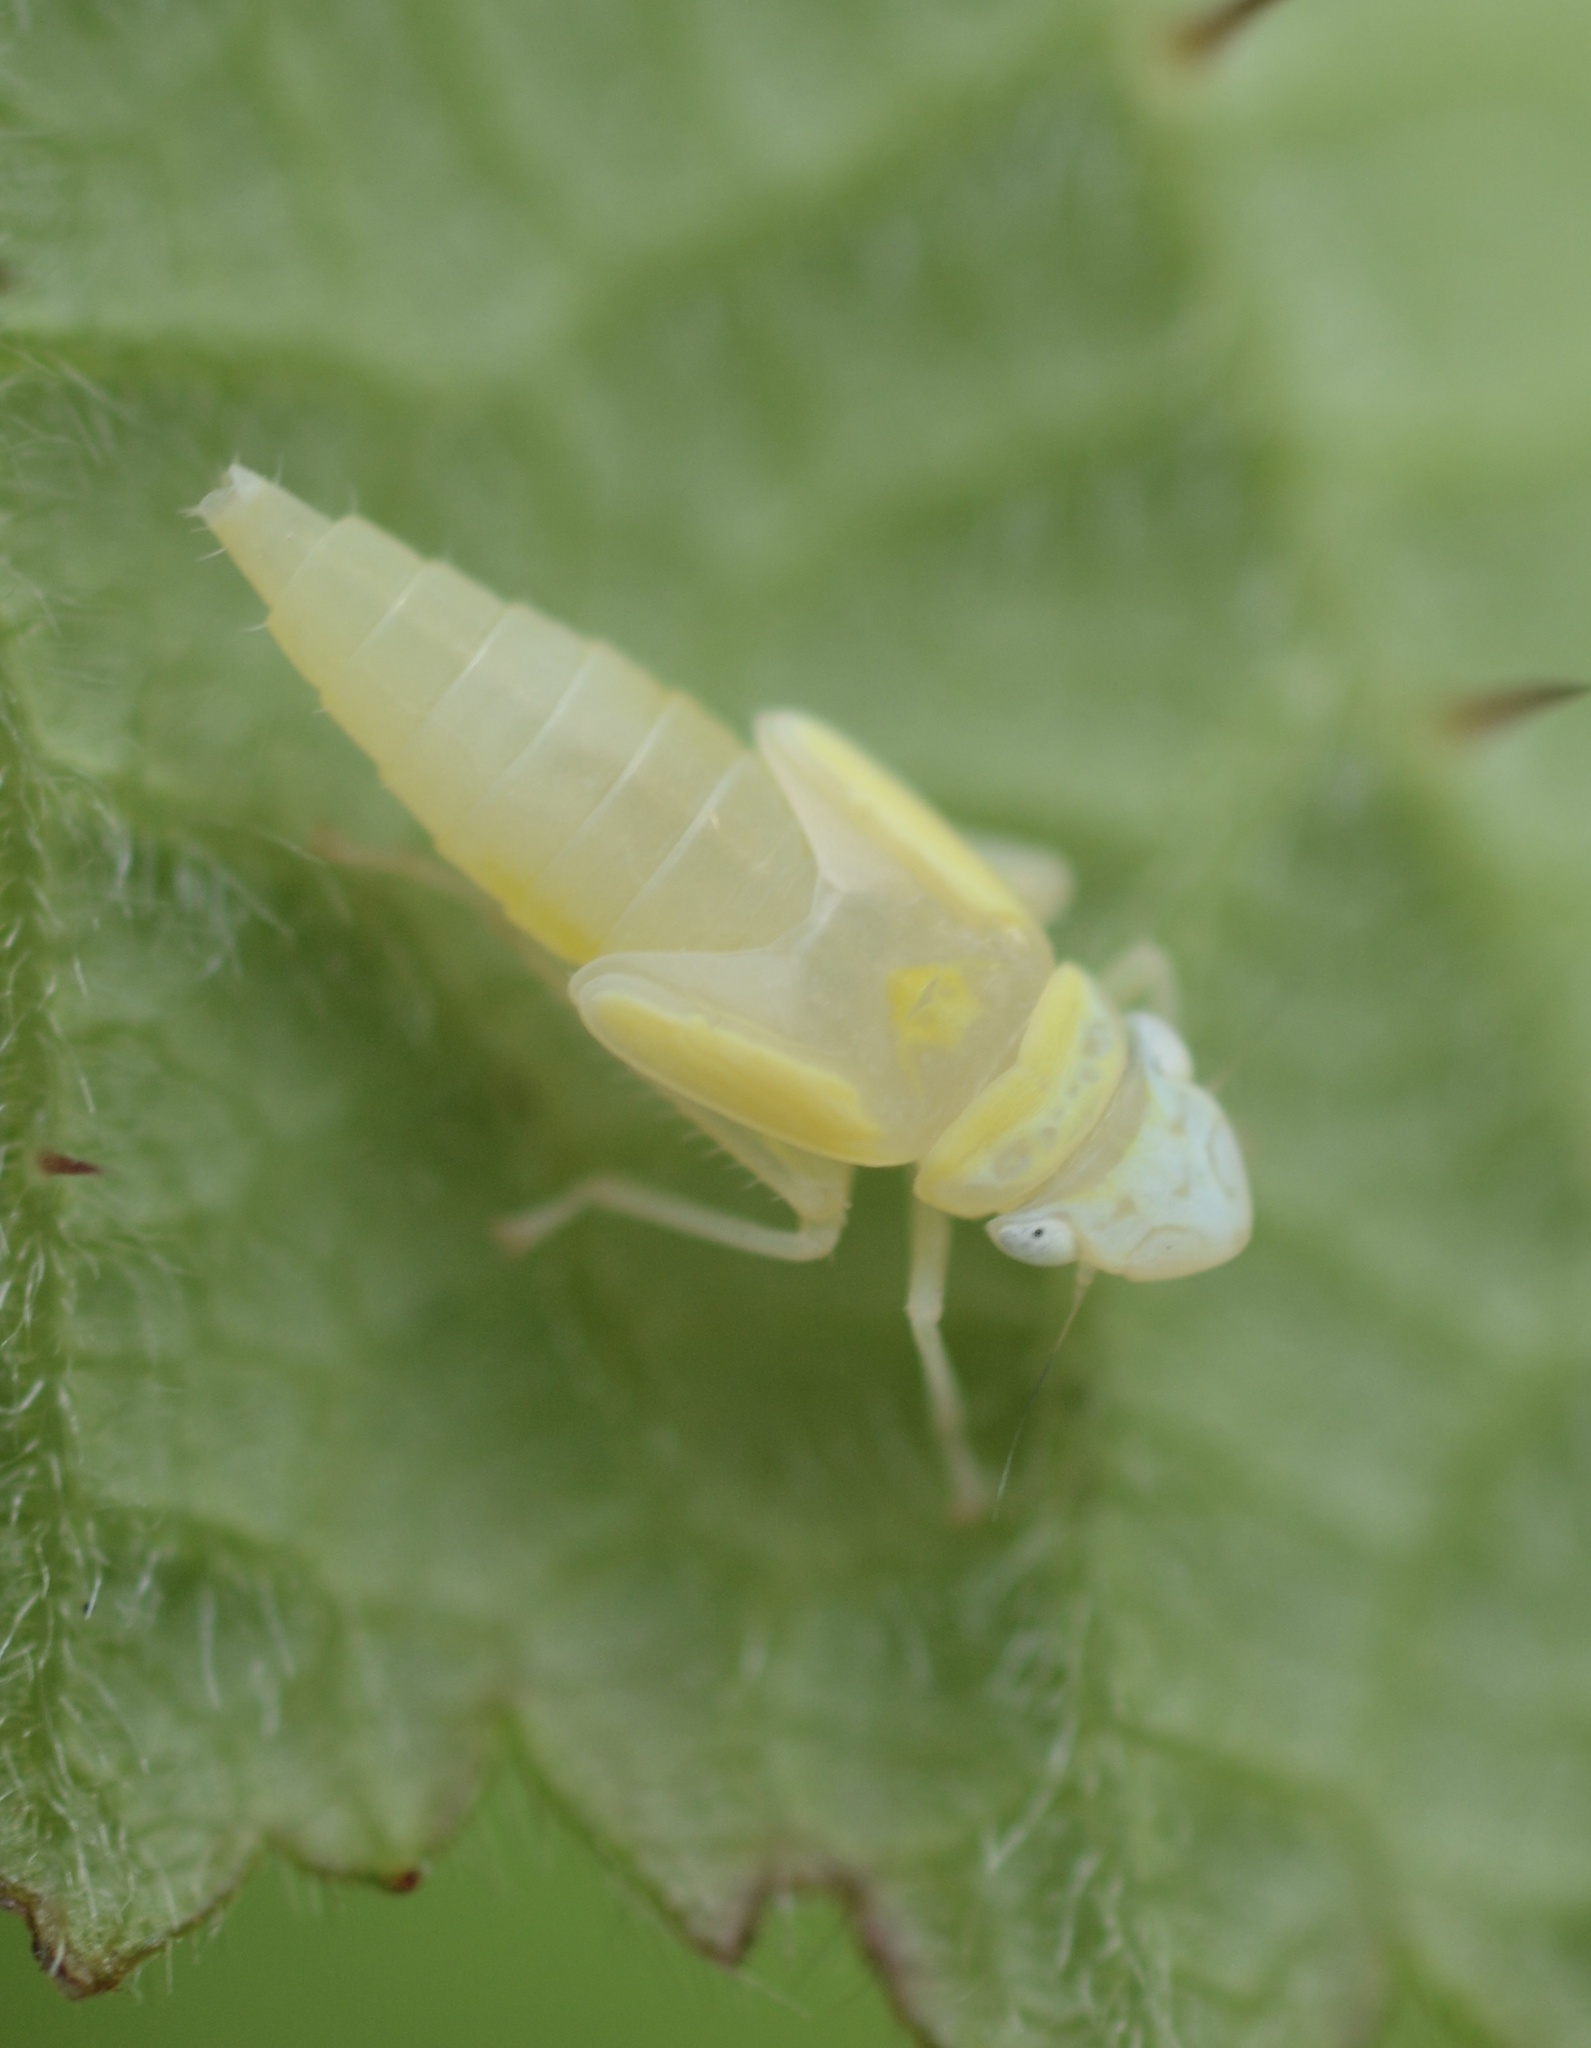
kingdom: Animalia
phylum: Arthropoda
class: Insecta
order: Hemiptera
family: Cicadellidae
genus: Graphocephala
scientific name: Graphocephala atropunctata
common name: Blue-green sharpshooter
